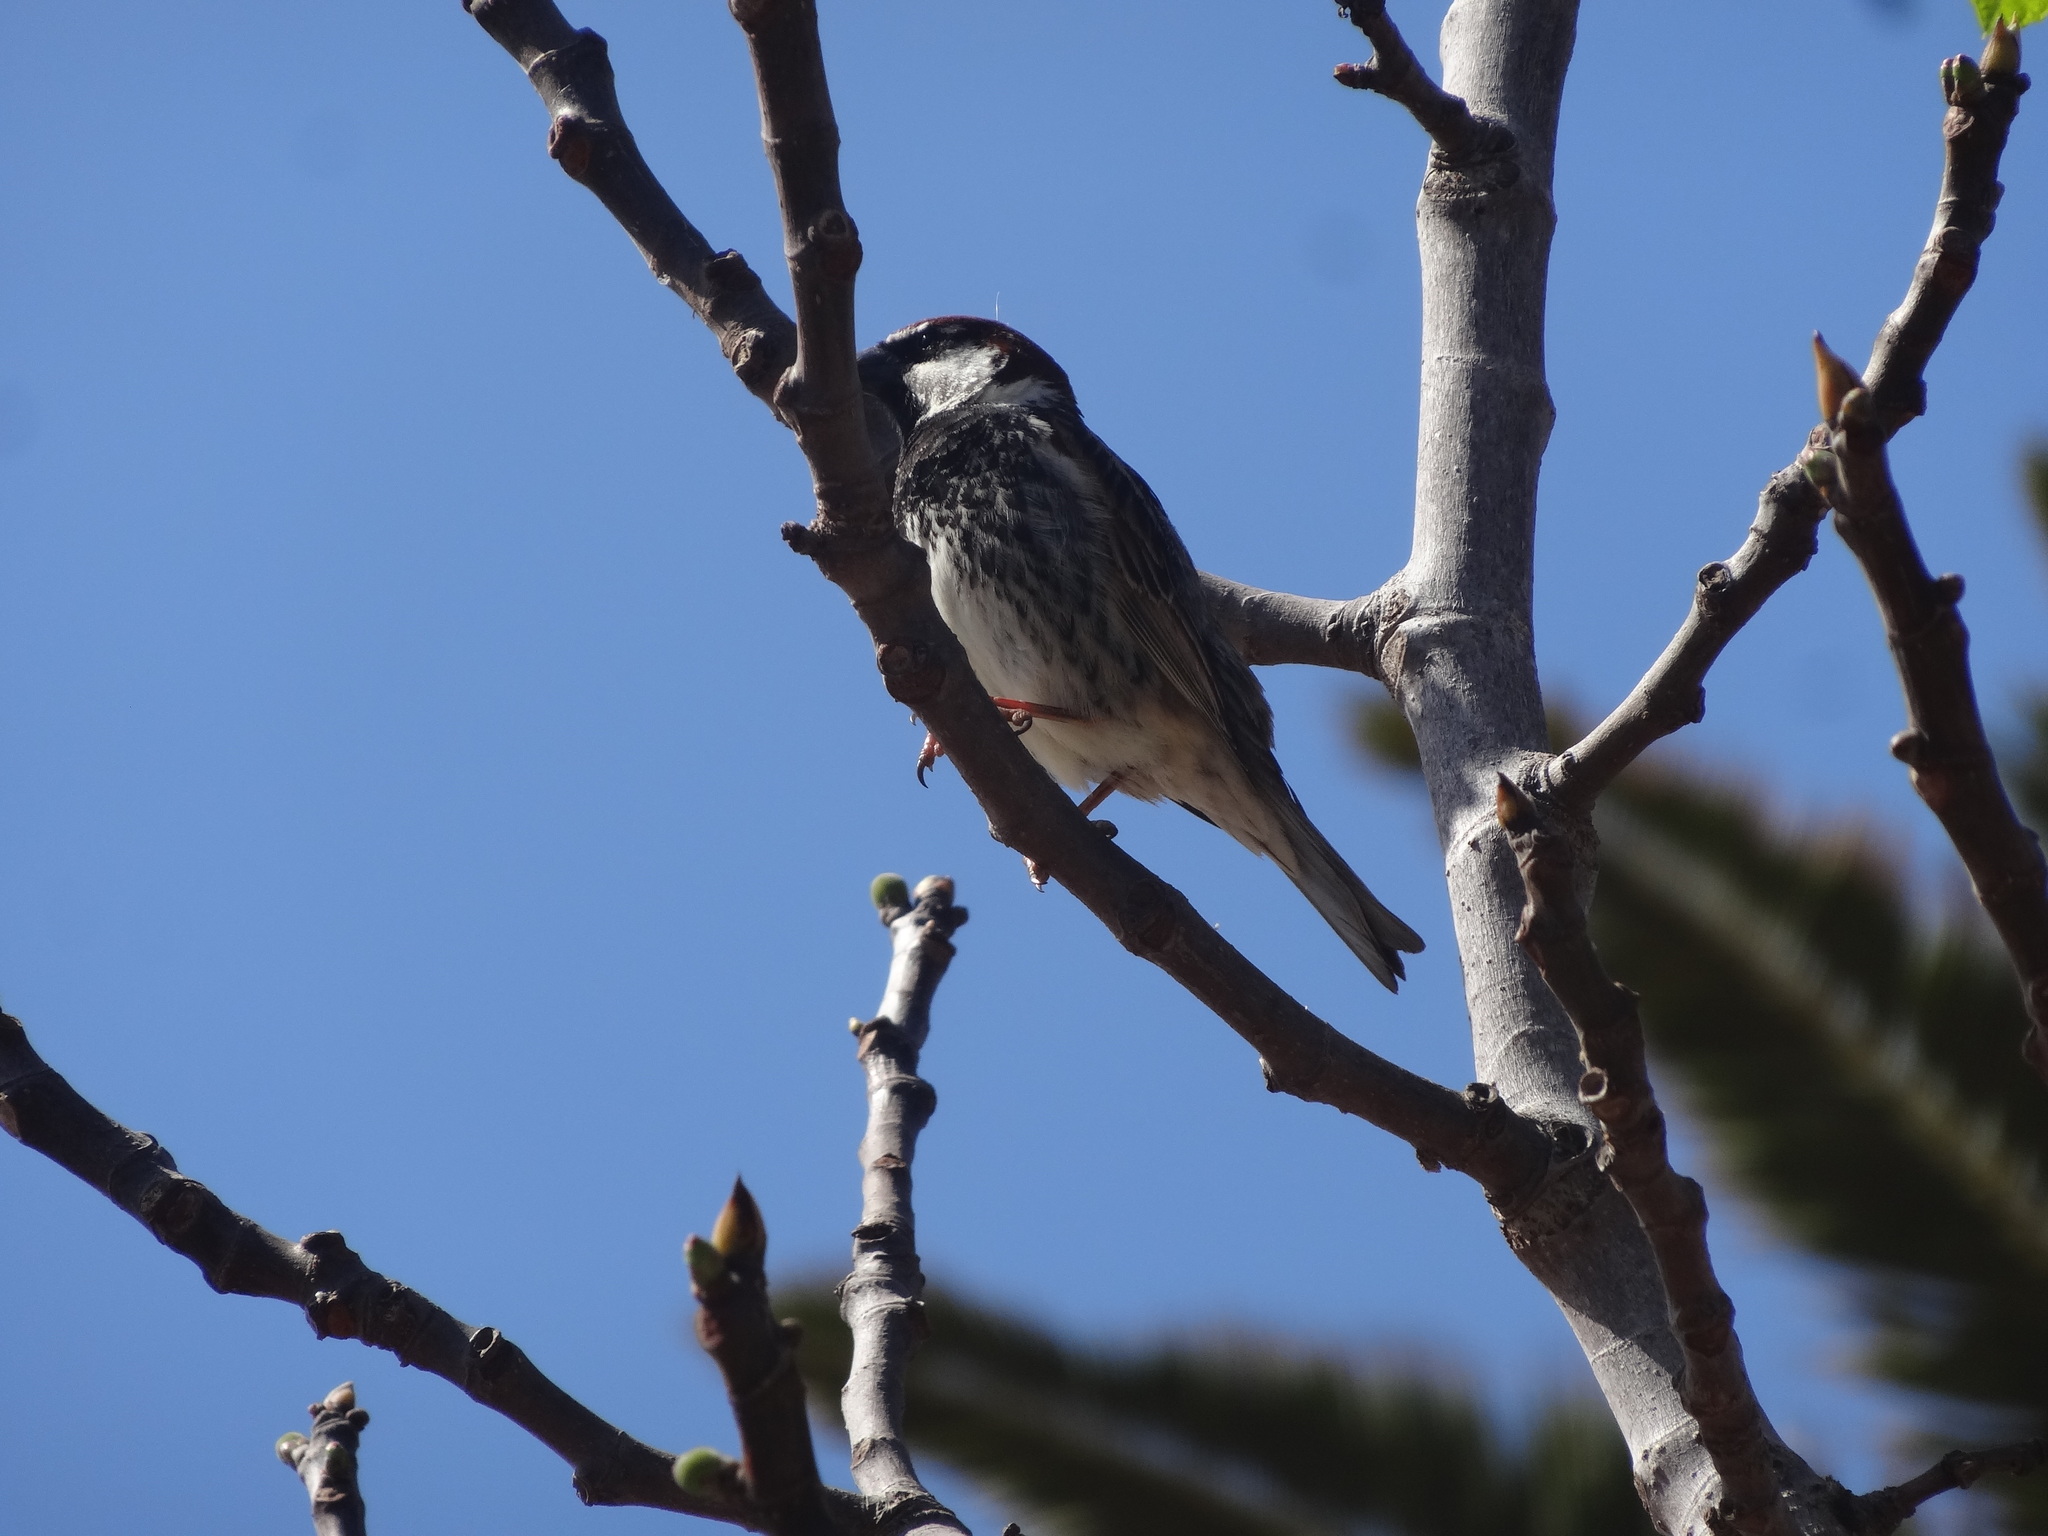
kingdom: Animalia
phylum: Chordata
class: Aves
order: Passeriformes
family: Passeridae
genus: Passer
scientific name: Passer hispaniolensis
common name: Spanish sparrow
